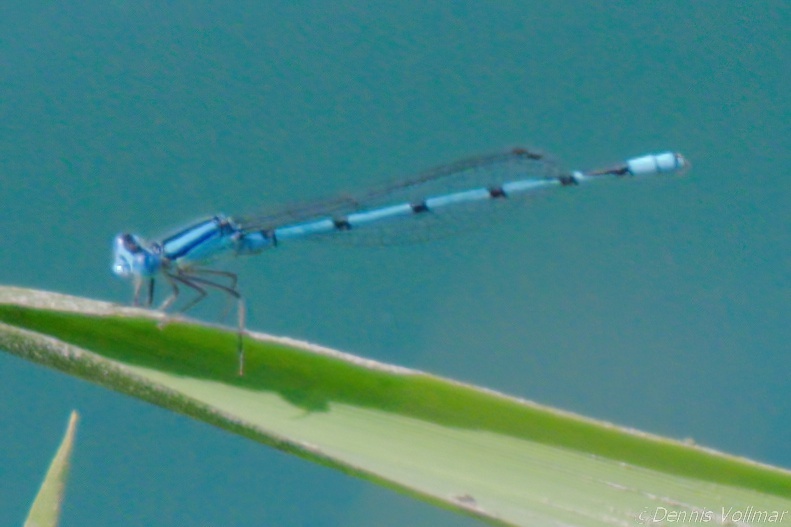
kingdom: Animalia
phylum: Arthropoda
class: Insecta
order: Odonata
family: Coenagrionidae
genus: Enallagma
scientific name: Enallagma doubledayi
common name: Atlantic bluet
